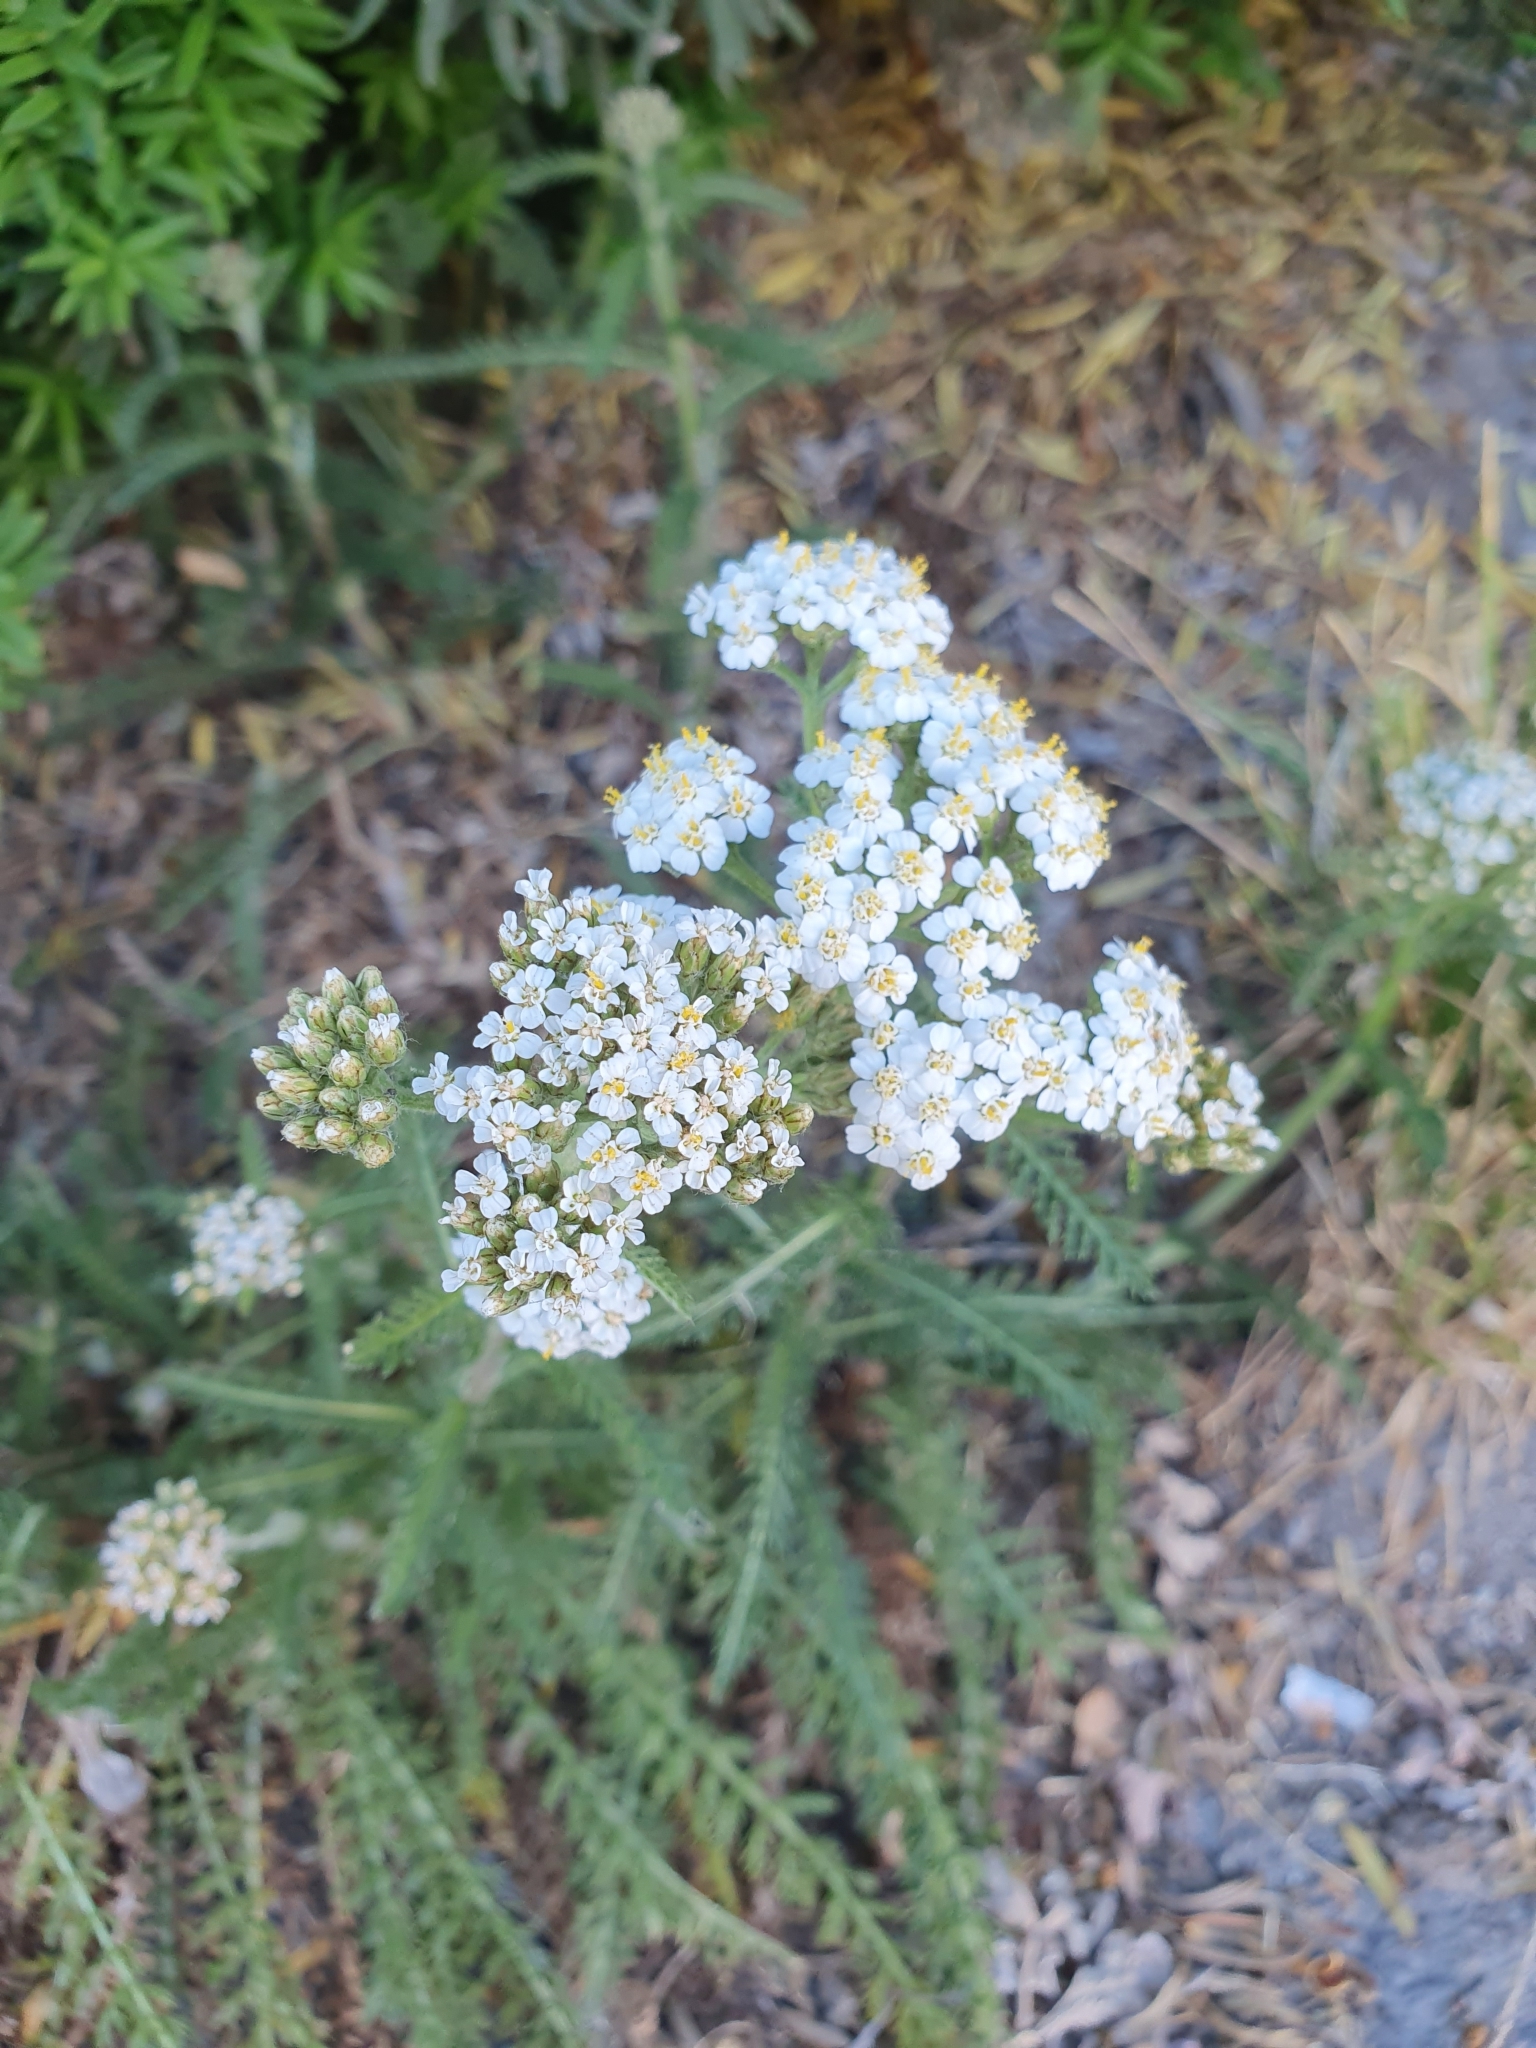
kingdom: Plantae
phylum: Tracheophyta
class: Magnoliopsida
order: Asterales
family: Asteraceae
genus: Achillea
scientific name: Achillea millefolium
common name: Yarrow
